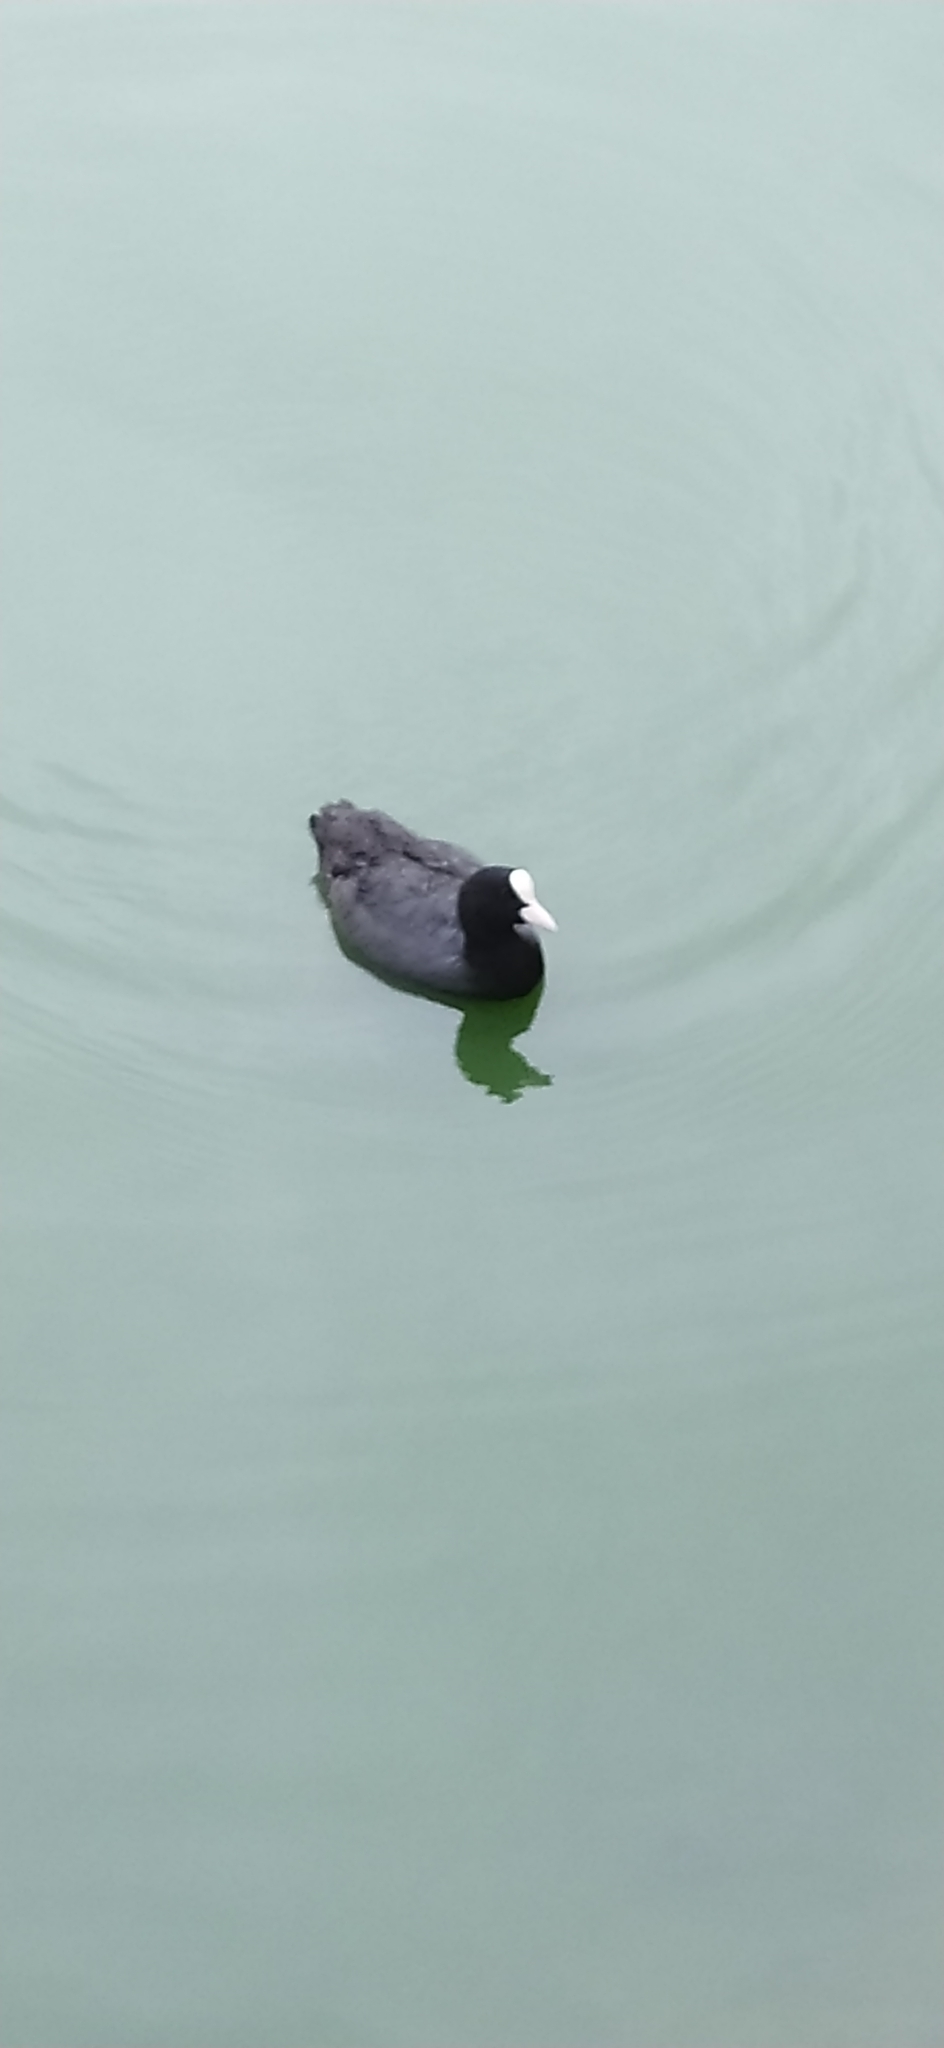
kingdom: Animalia
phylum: Chordata
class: Aves
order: Gruiformes
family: Rallidae
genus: Fulica
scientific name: Fulica atra
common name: Eurasian coot
